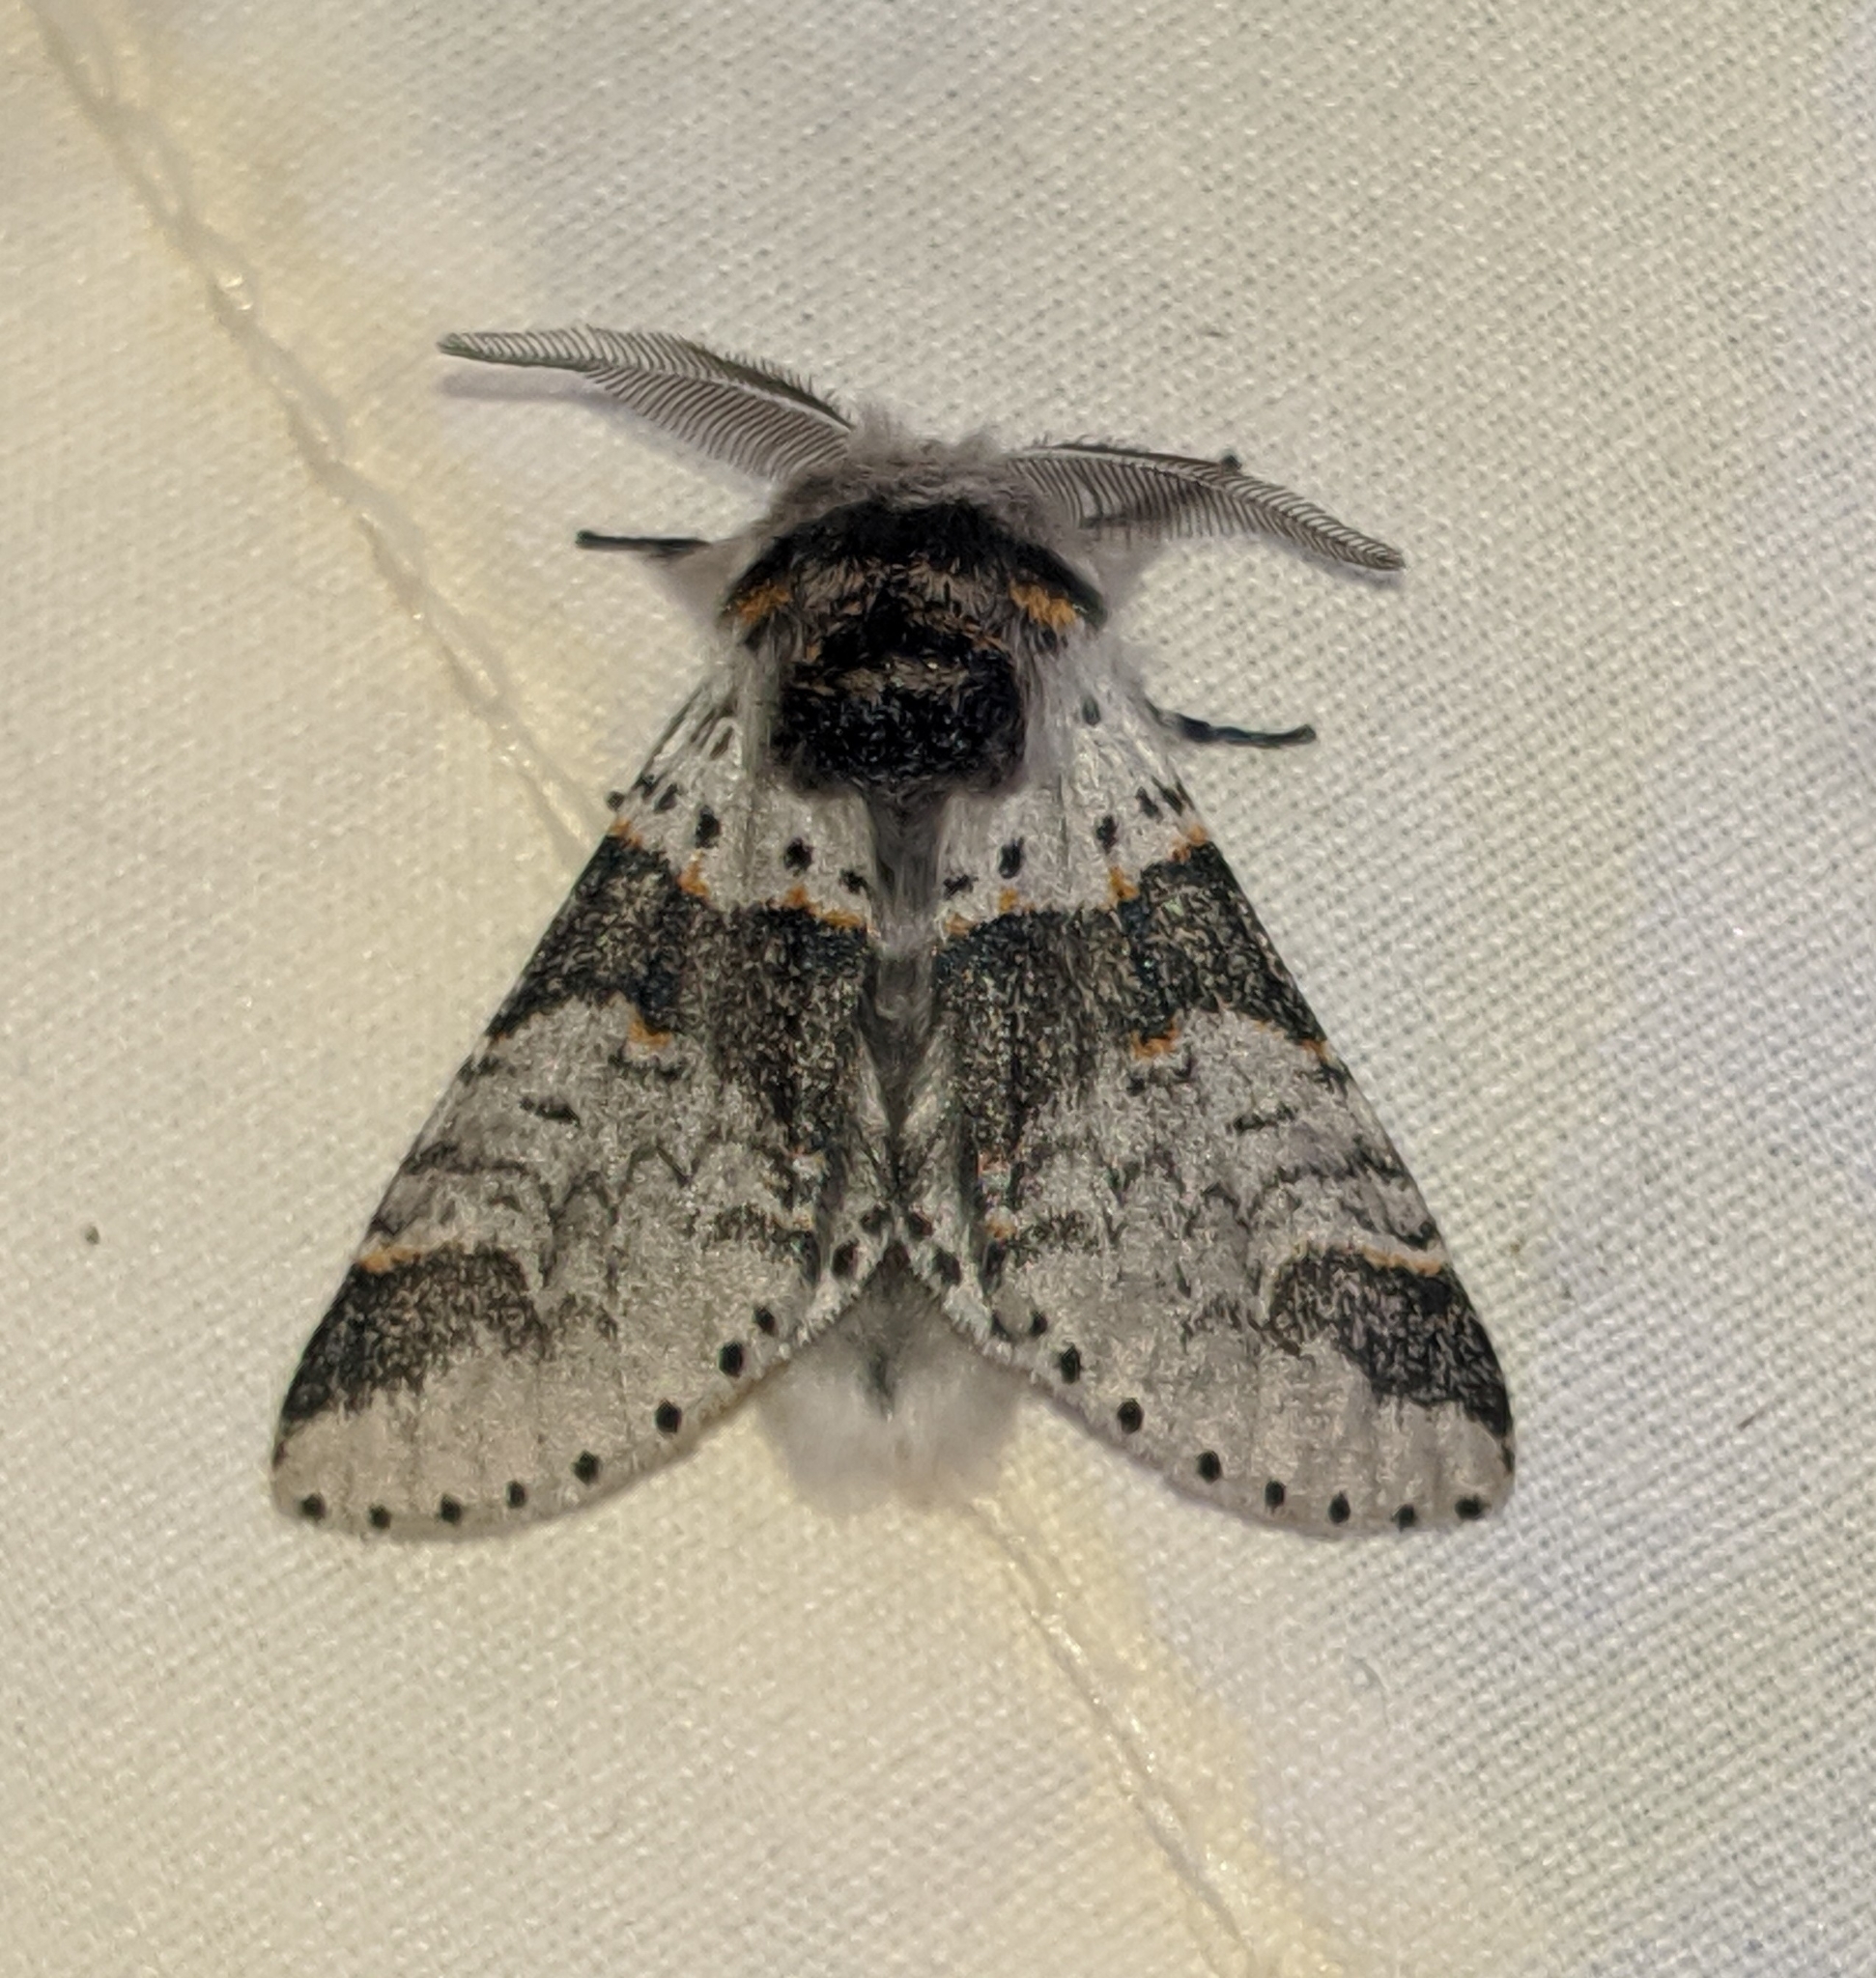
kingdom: Animalia
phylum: Arthropoda
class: Insecta
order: Lepidoptera
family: Notodontidae
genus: Furcula
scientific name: Furcula occidentalis
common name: Western furcula moth
